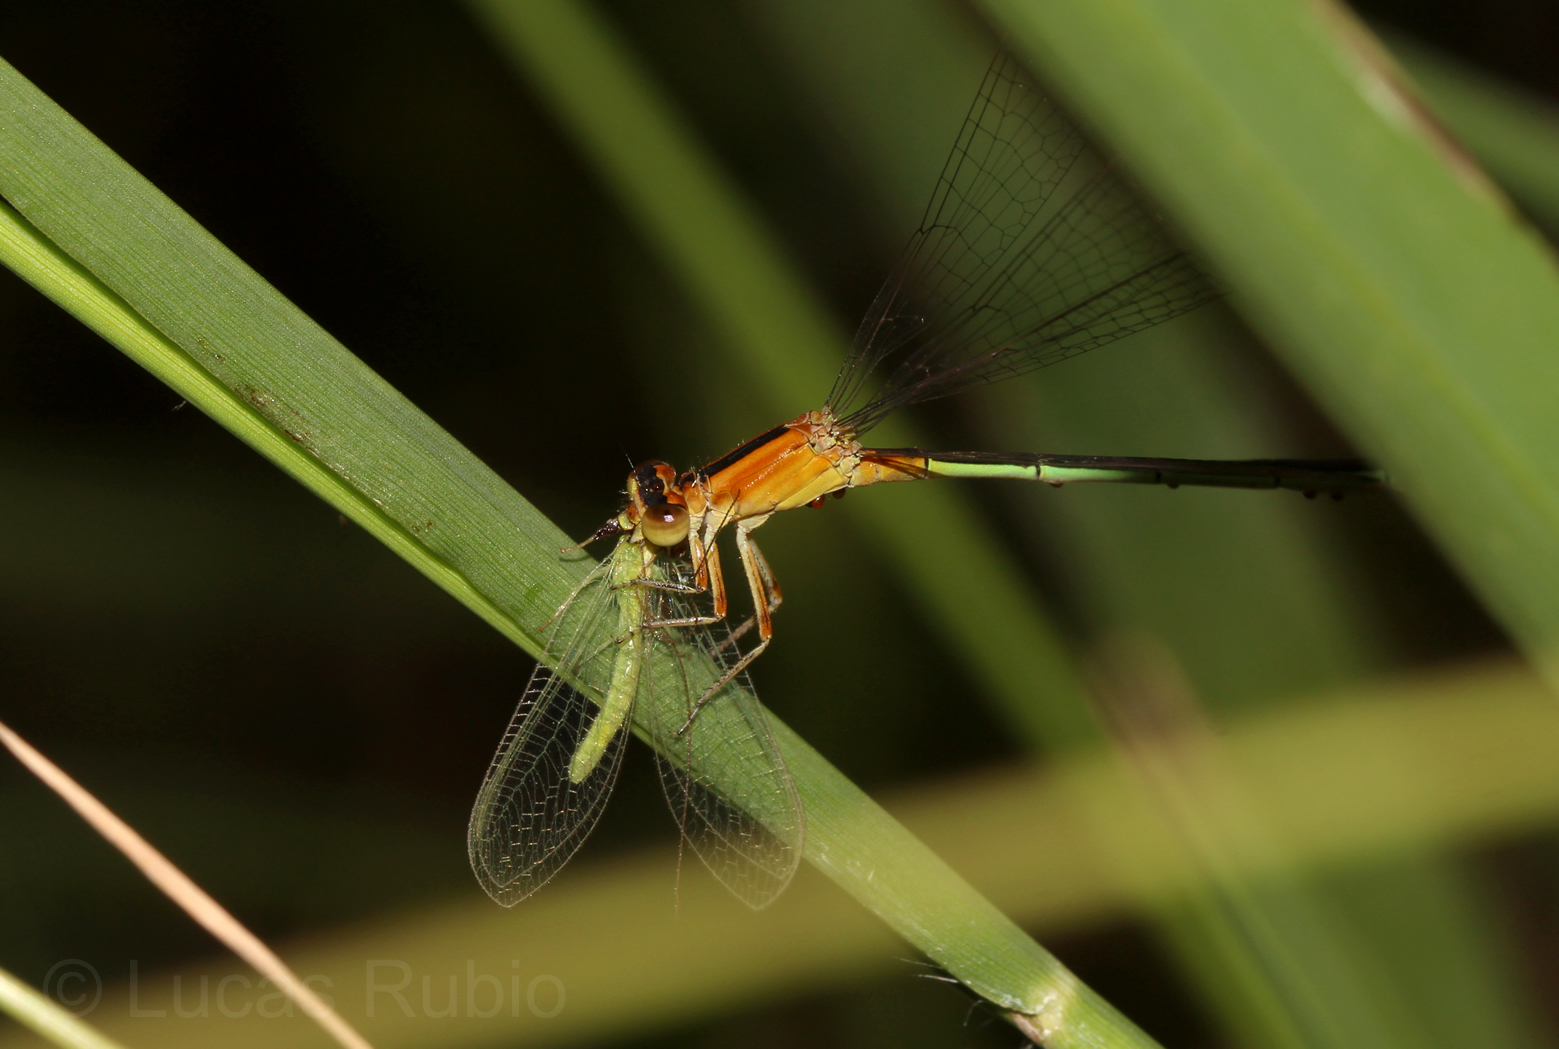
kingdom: Animalia
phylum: Arthropoda
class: Insecta
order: Odonata
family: Coenagrionidae
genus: Ischnura
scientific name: Ischnura fluviatilis
